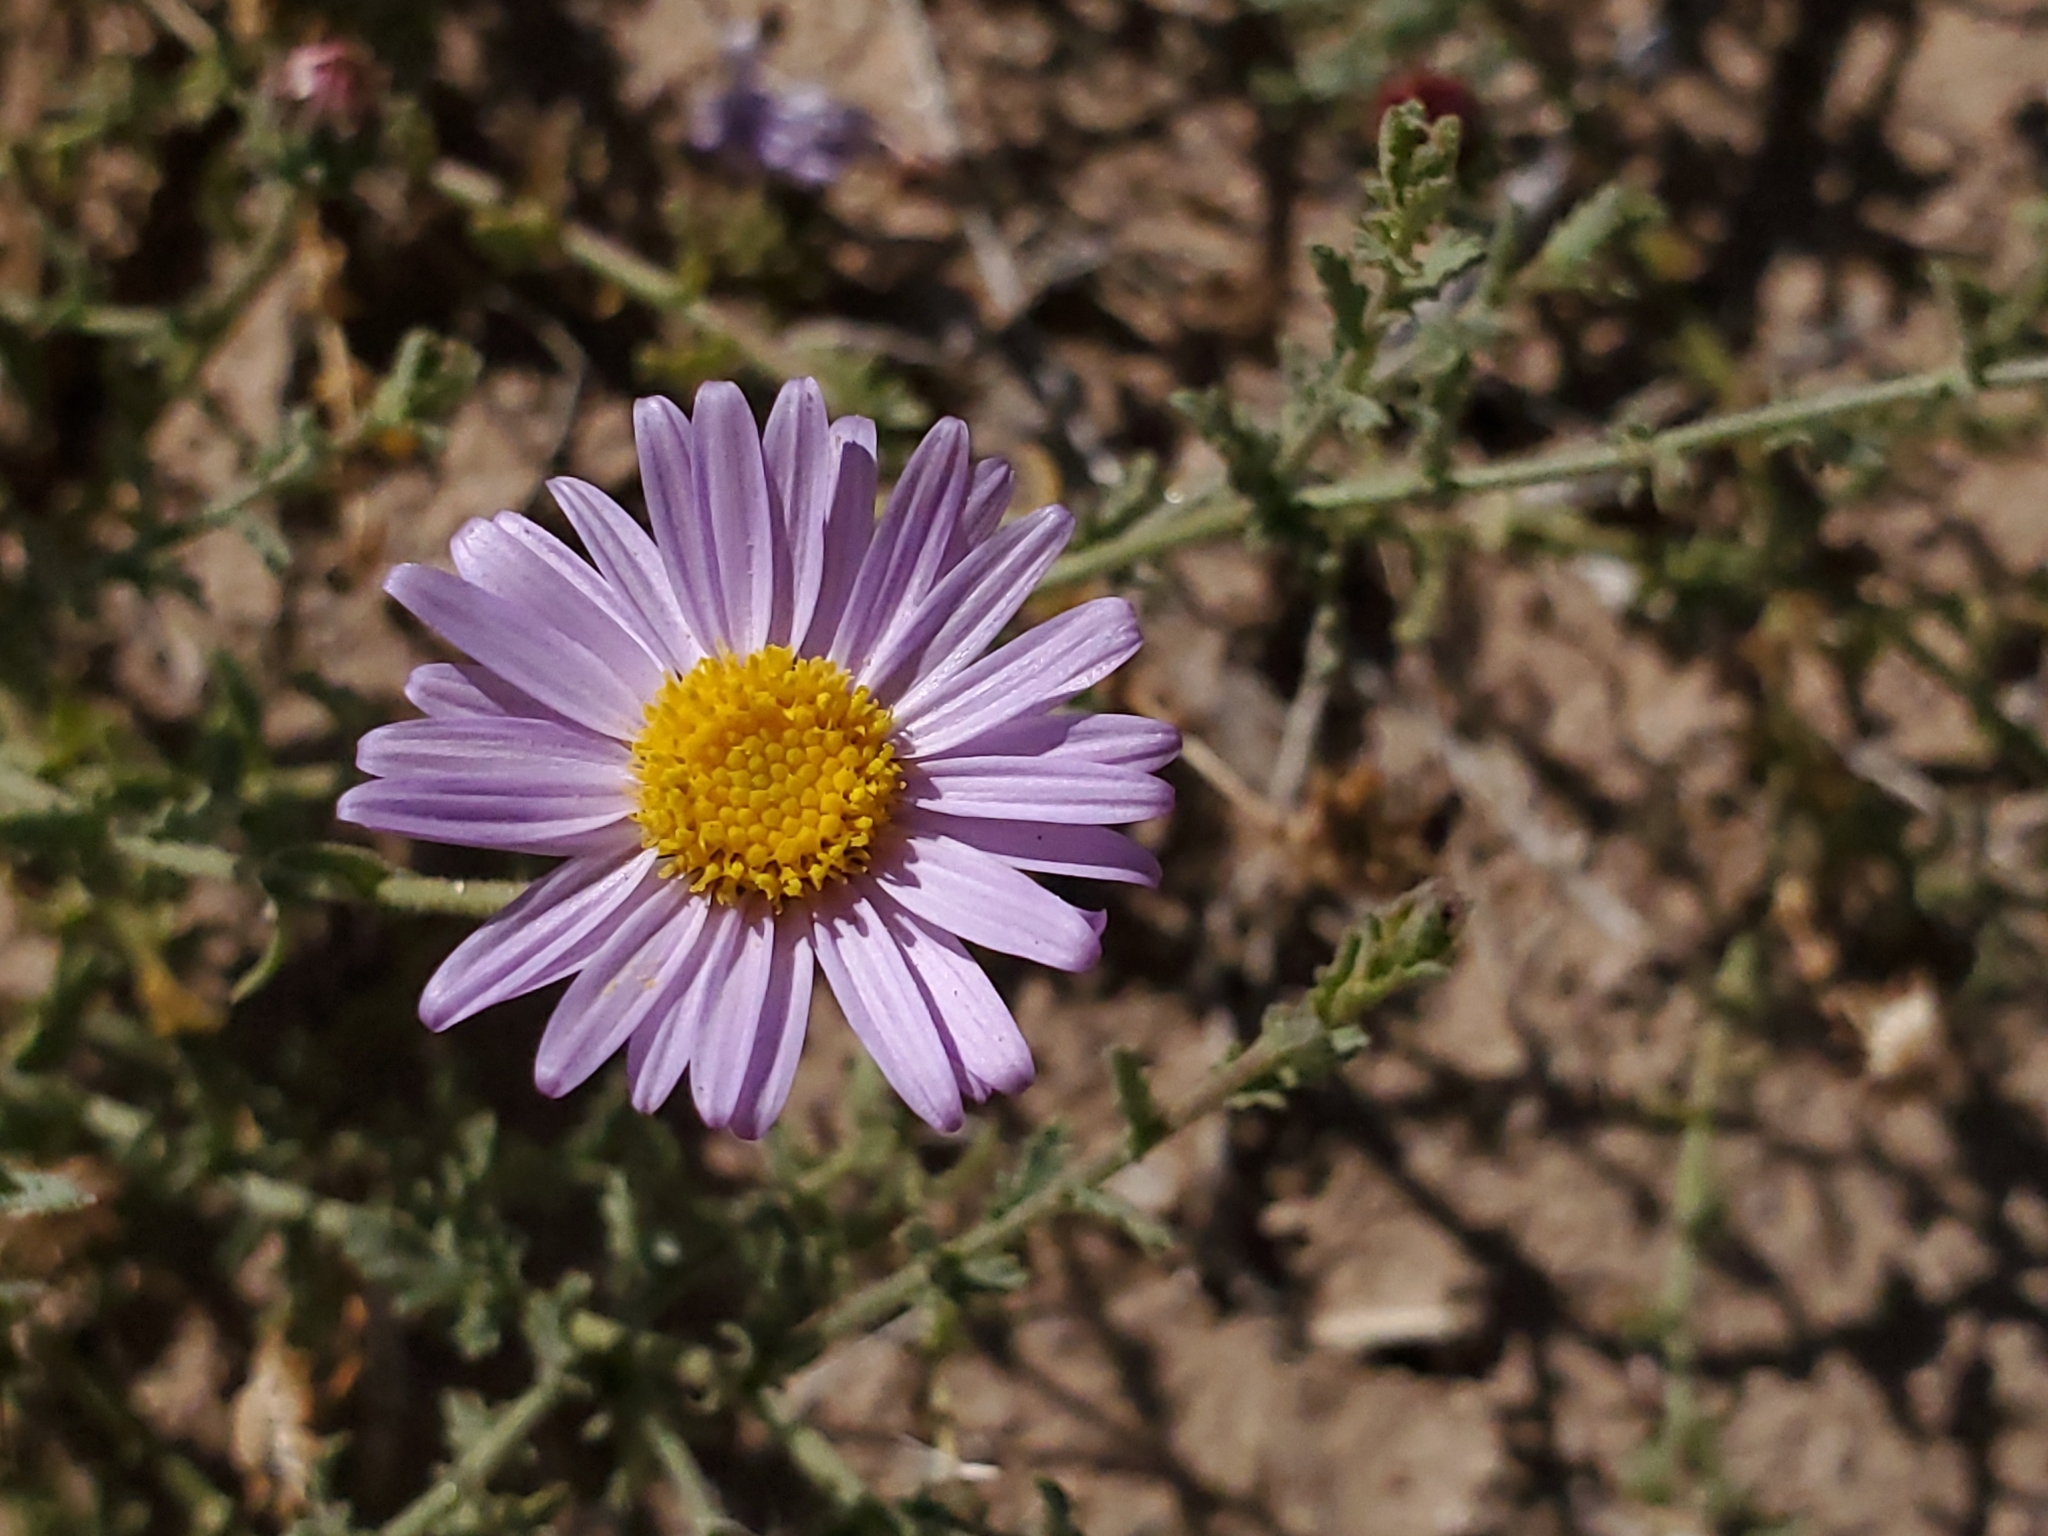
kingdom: Plantae
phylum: Tracheophyta
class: Magnoliopsida
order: Asterales
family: Asteraceae
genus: Dieteria
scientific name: Dieteria asteroides
